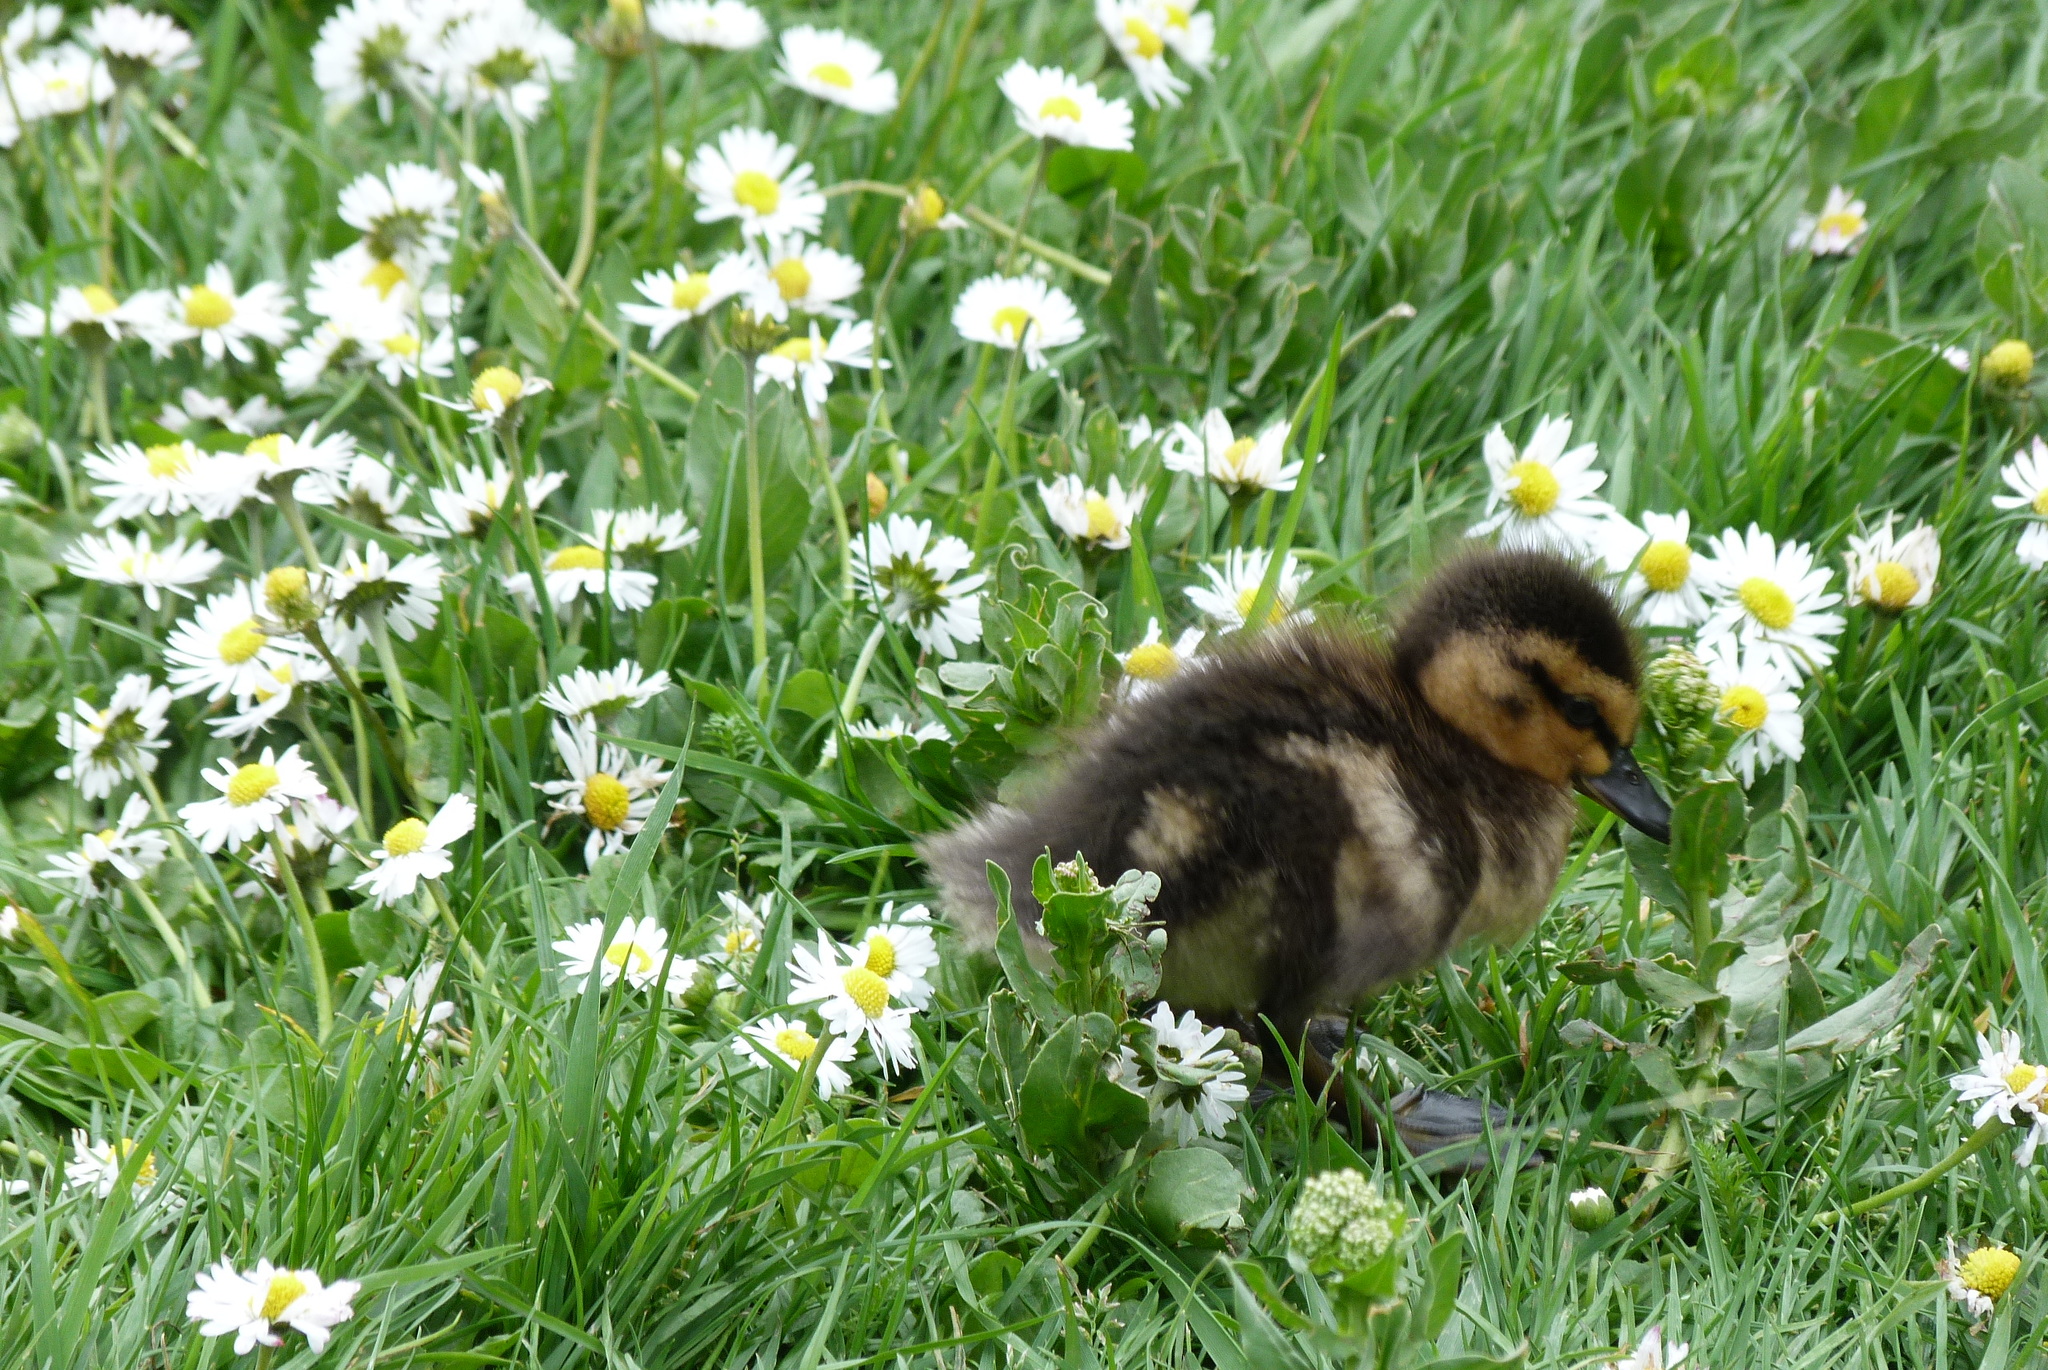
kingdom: Animalia
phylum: Chordata
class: Aves
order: Anseriformes
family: Anatidae
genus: Anas
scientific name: Anas
